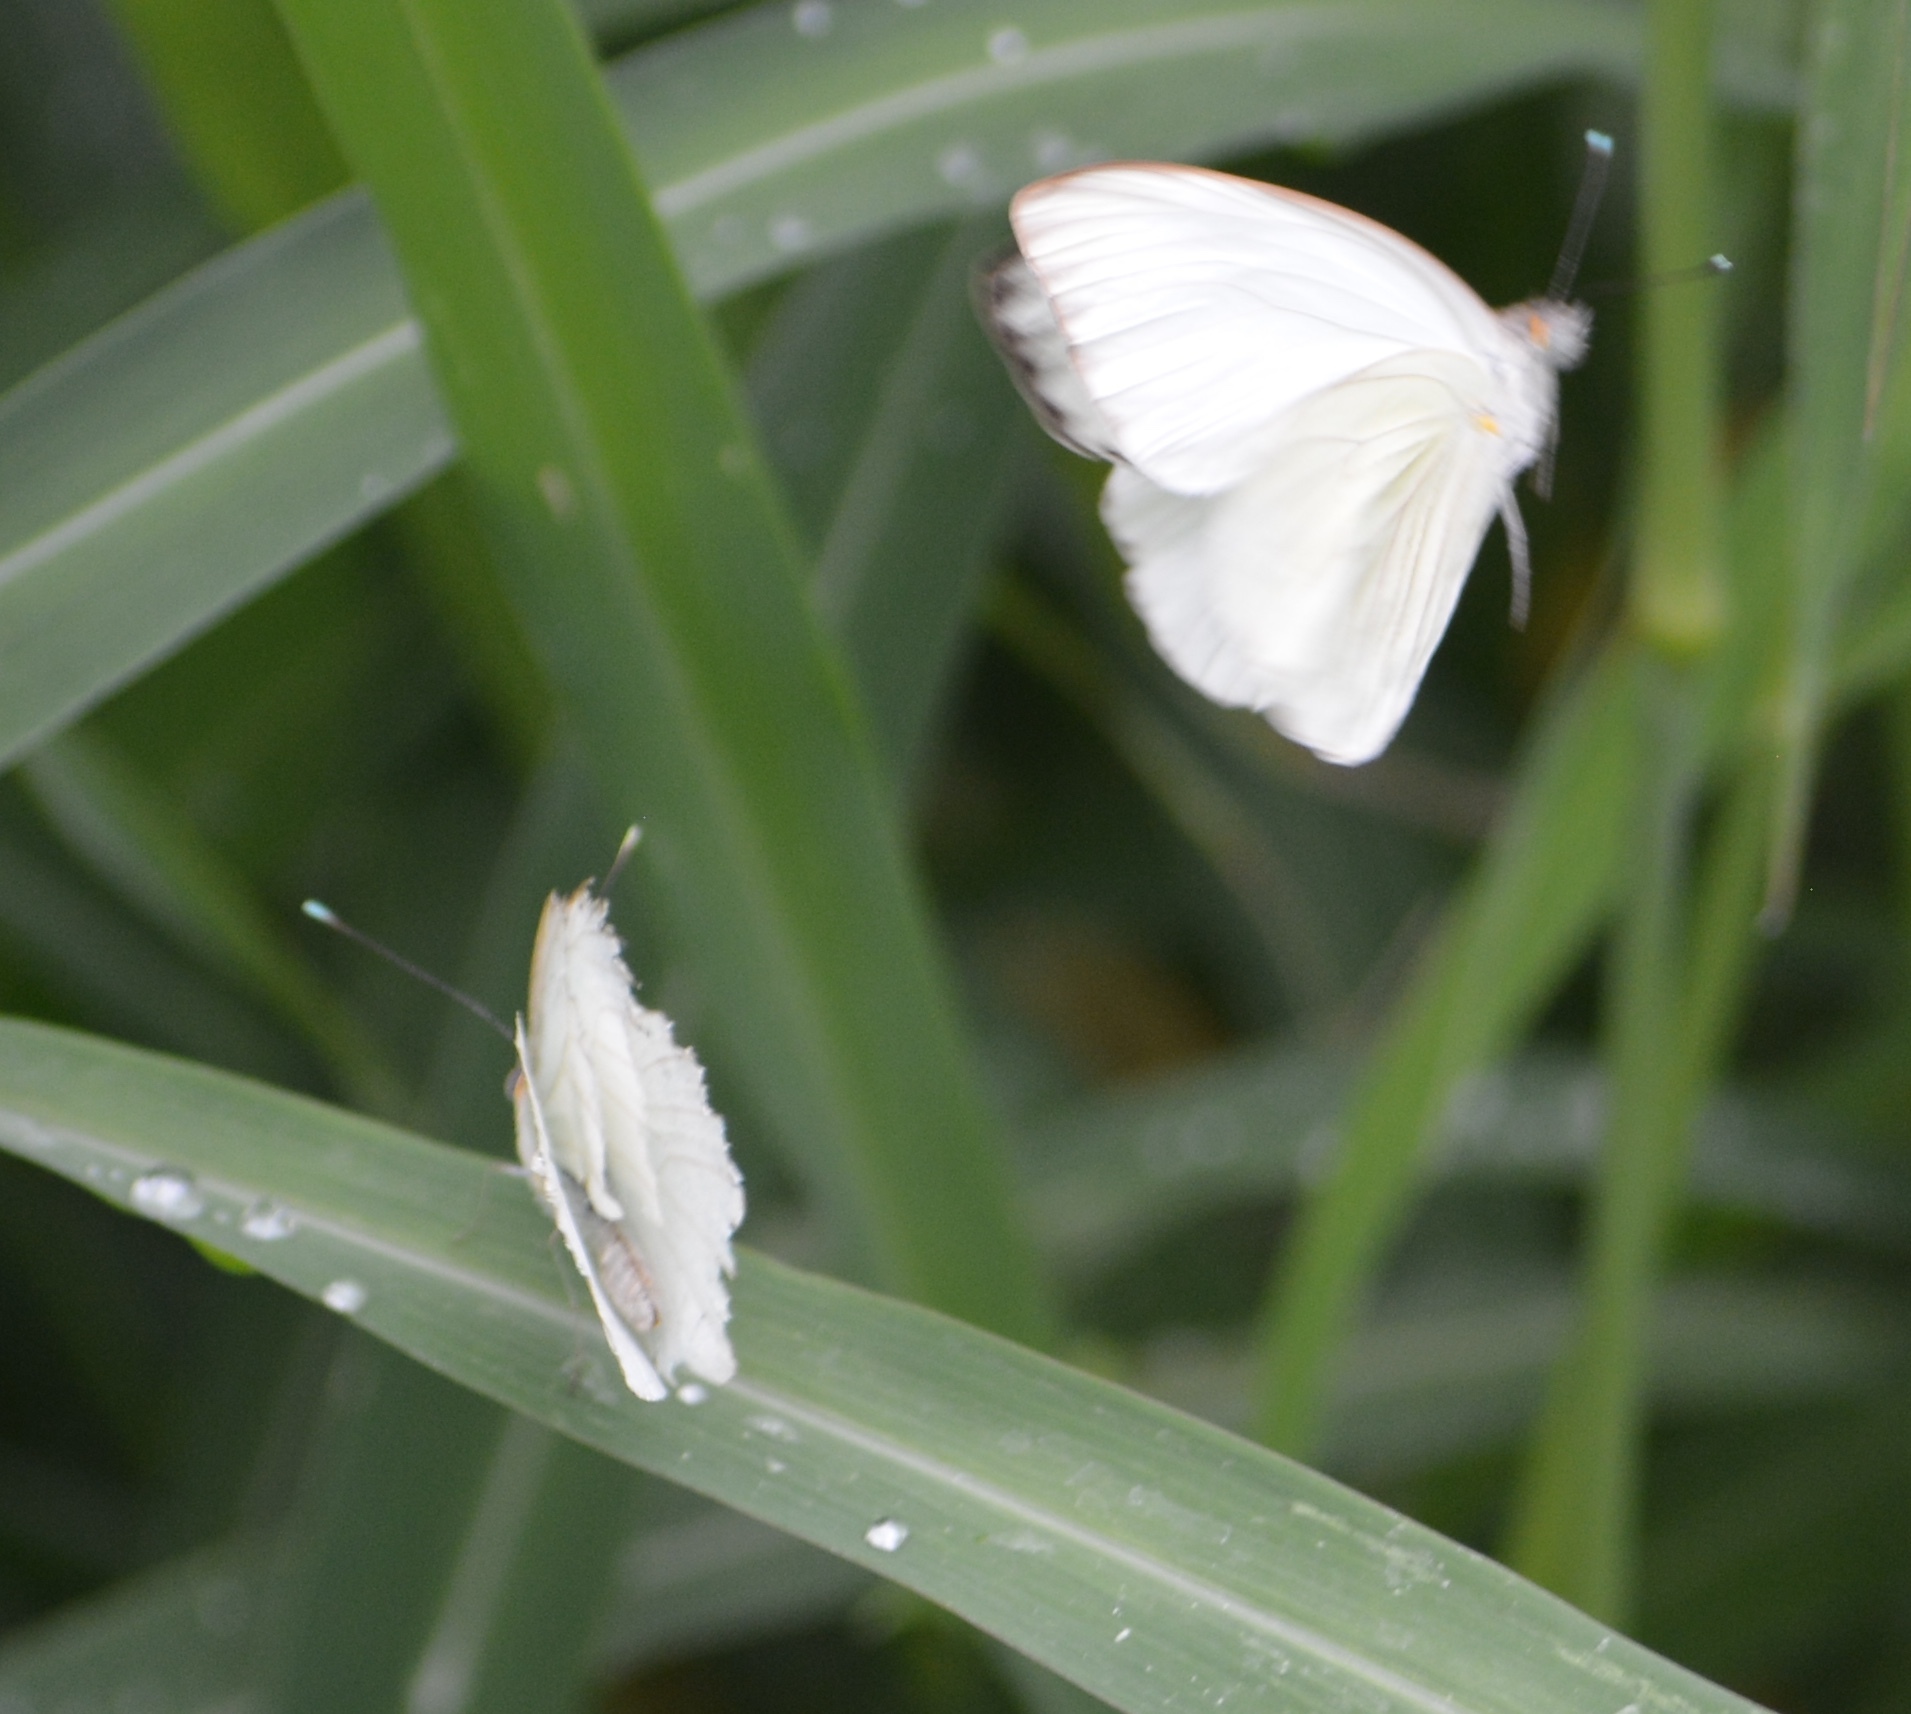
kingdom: Animalia
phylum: Arthropoda
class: Insecta
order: Lepidoptera
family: Pieridae
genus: Ascia
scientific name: Ascia monuste
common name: Great southern white
